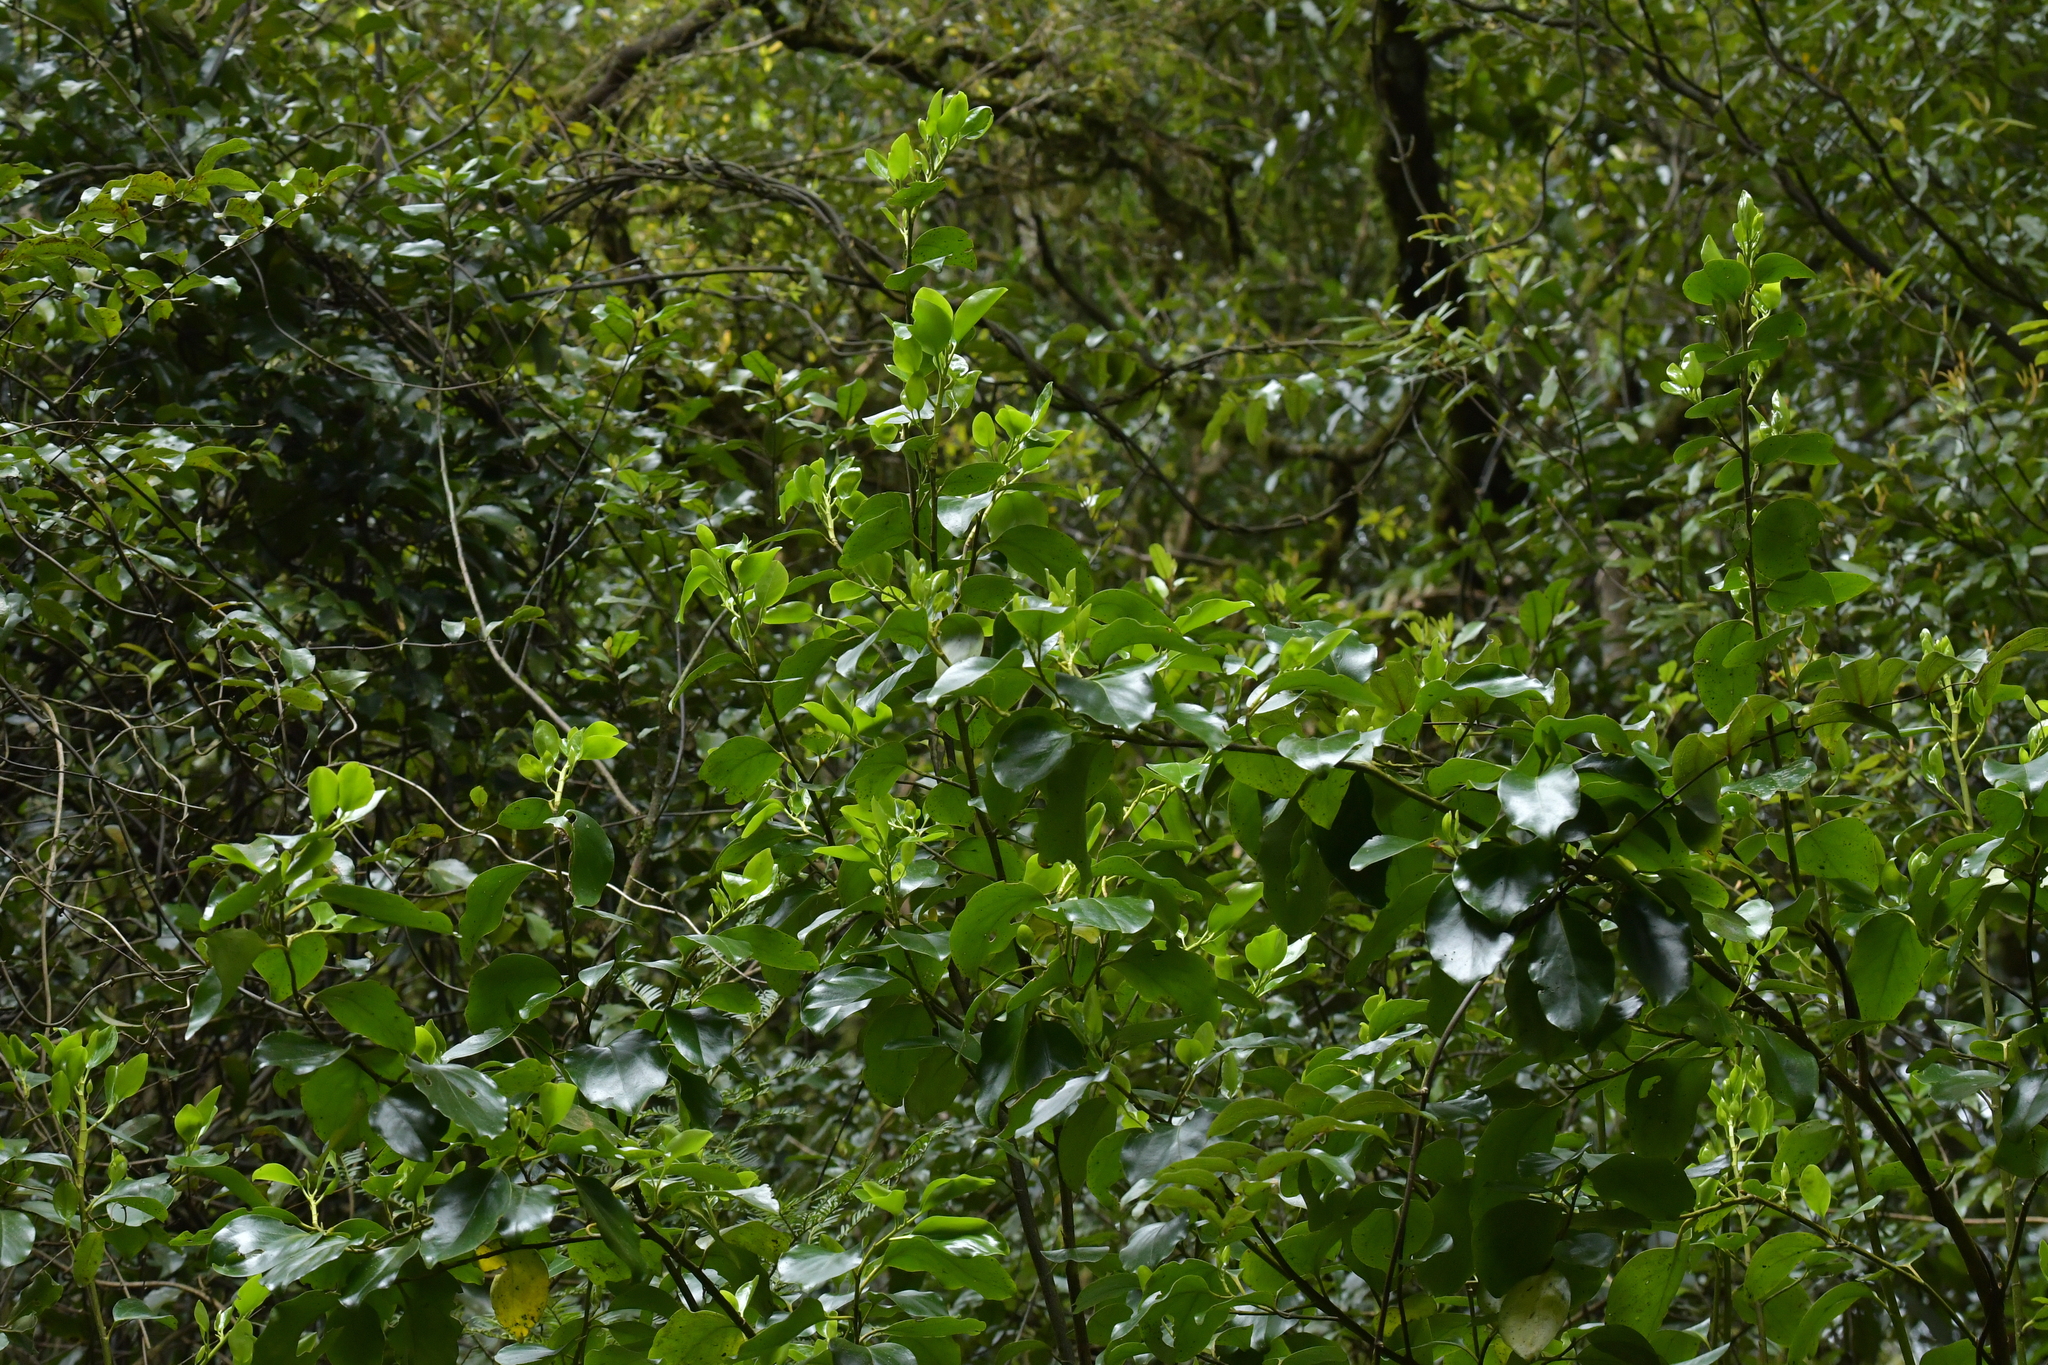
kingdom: Plantae
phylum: Tracheophyta
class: Magnoliopsida
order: Apiales
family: Griseliniaceae
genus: Griselinia
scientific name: Griselinia littoralis
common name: New zealand broadleaf
